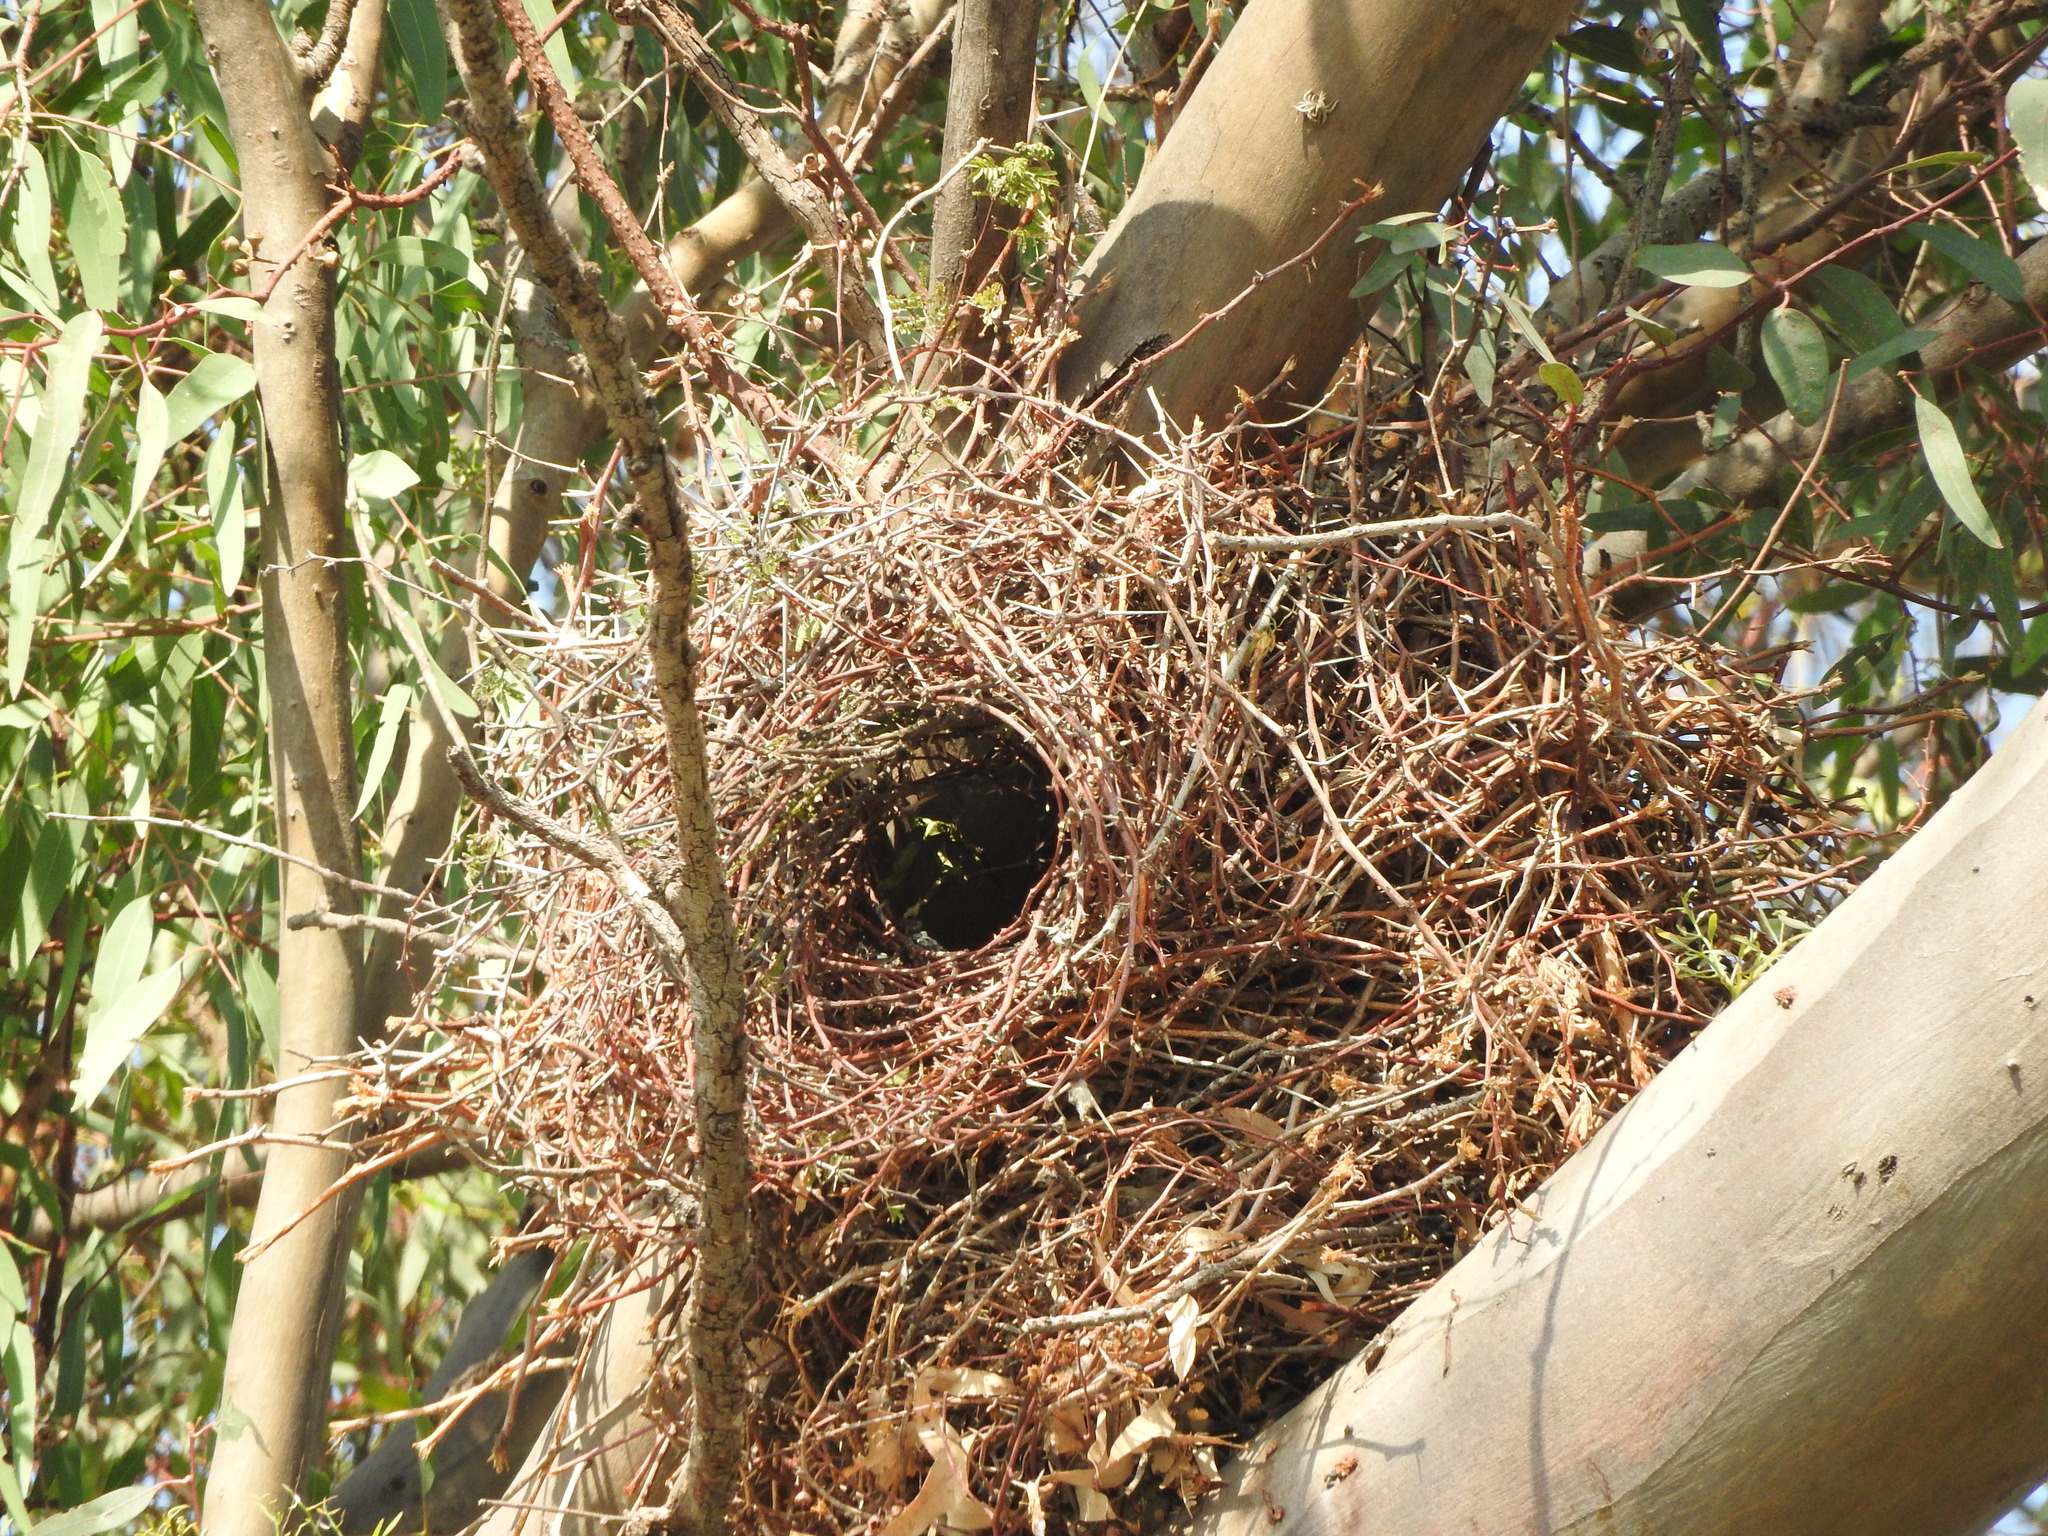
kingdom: Animalia
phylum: Chordata
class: Aves
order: Psittaciformes
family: Psittacidae
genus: Myiopsitta
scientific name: Myiopsitta monachus
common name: Monk parakeet
